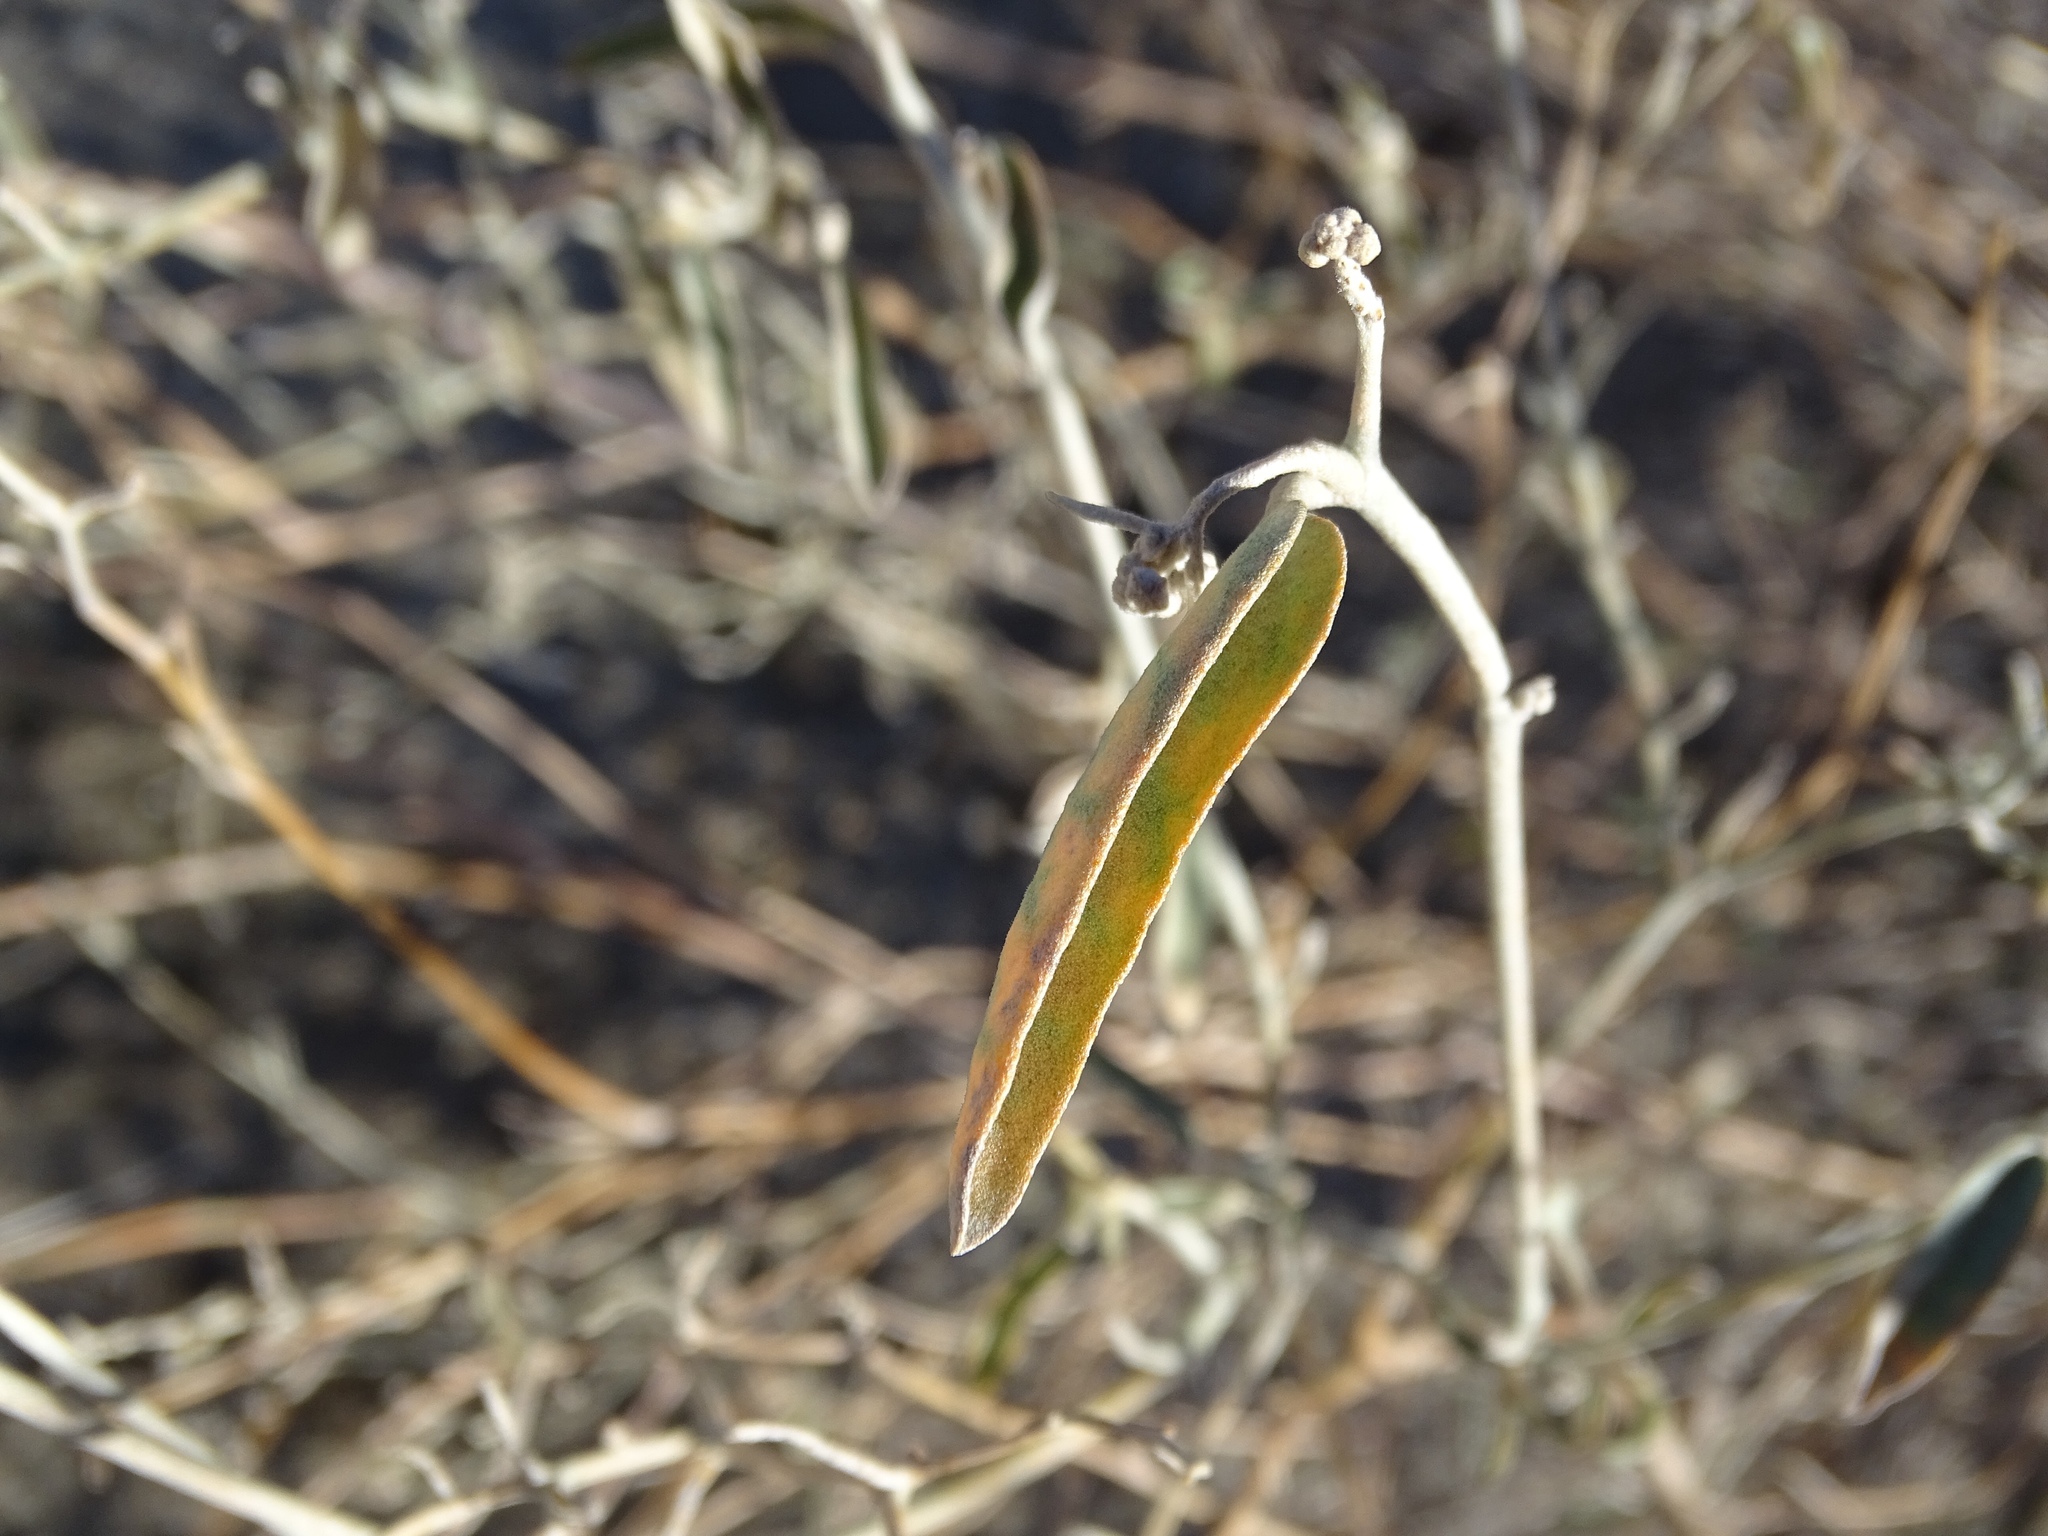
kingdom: Plantae
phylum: Tracheophyta
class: Magnoliopsida
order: Malpighiales
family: Euphorbiaceae
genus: Croton
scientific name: Croton californicus
